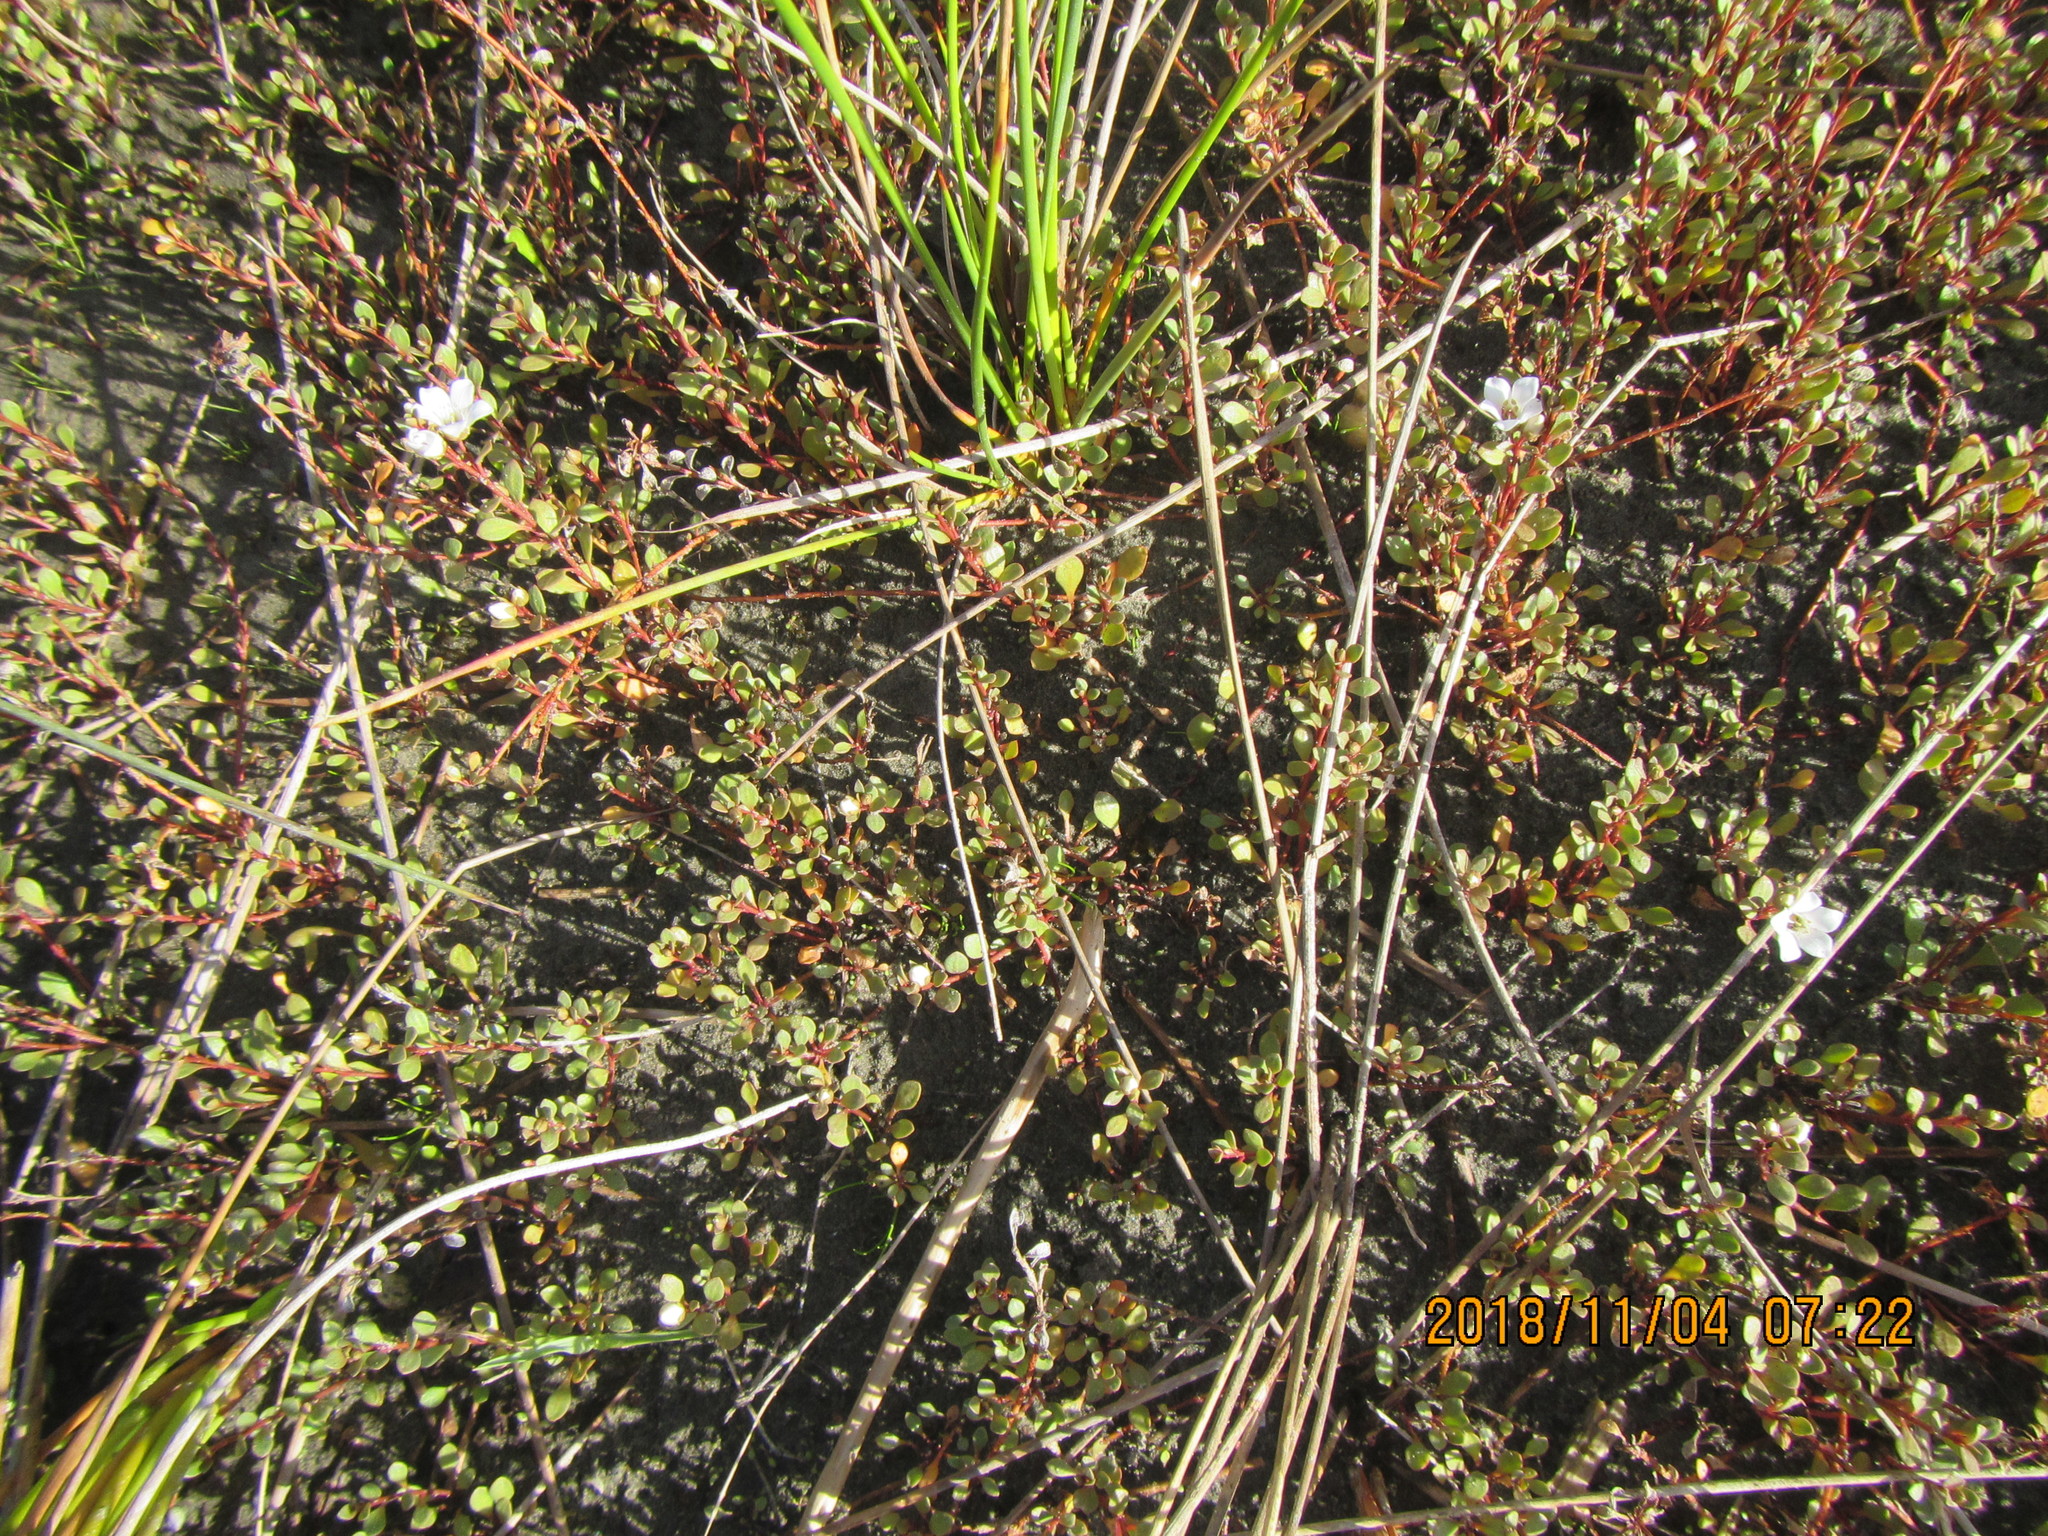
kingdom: Plantae
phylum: Tracheophyta
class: Magnoliopsida
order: Ericales
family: Primulaceae
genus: Samolus
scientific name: Samolus repens
